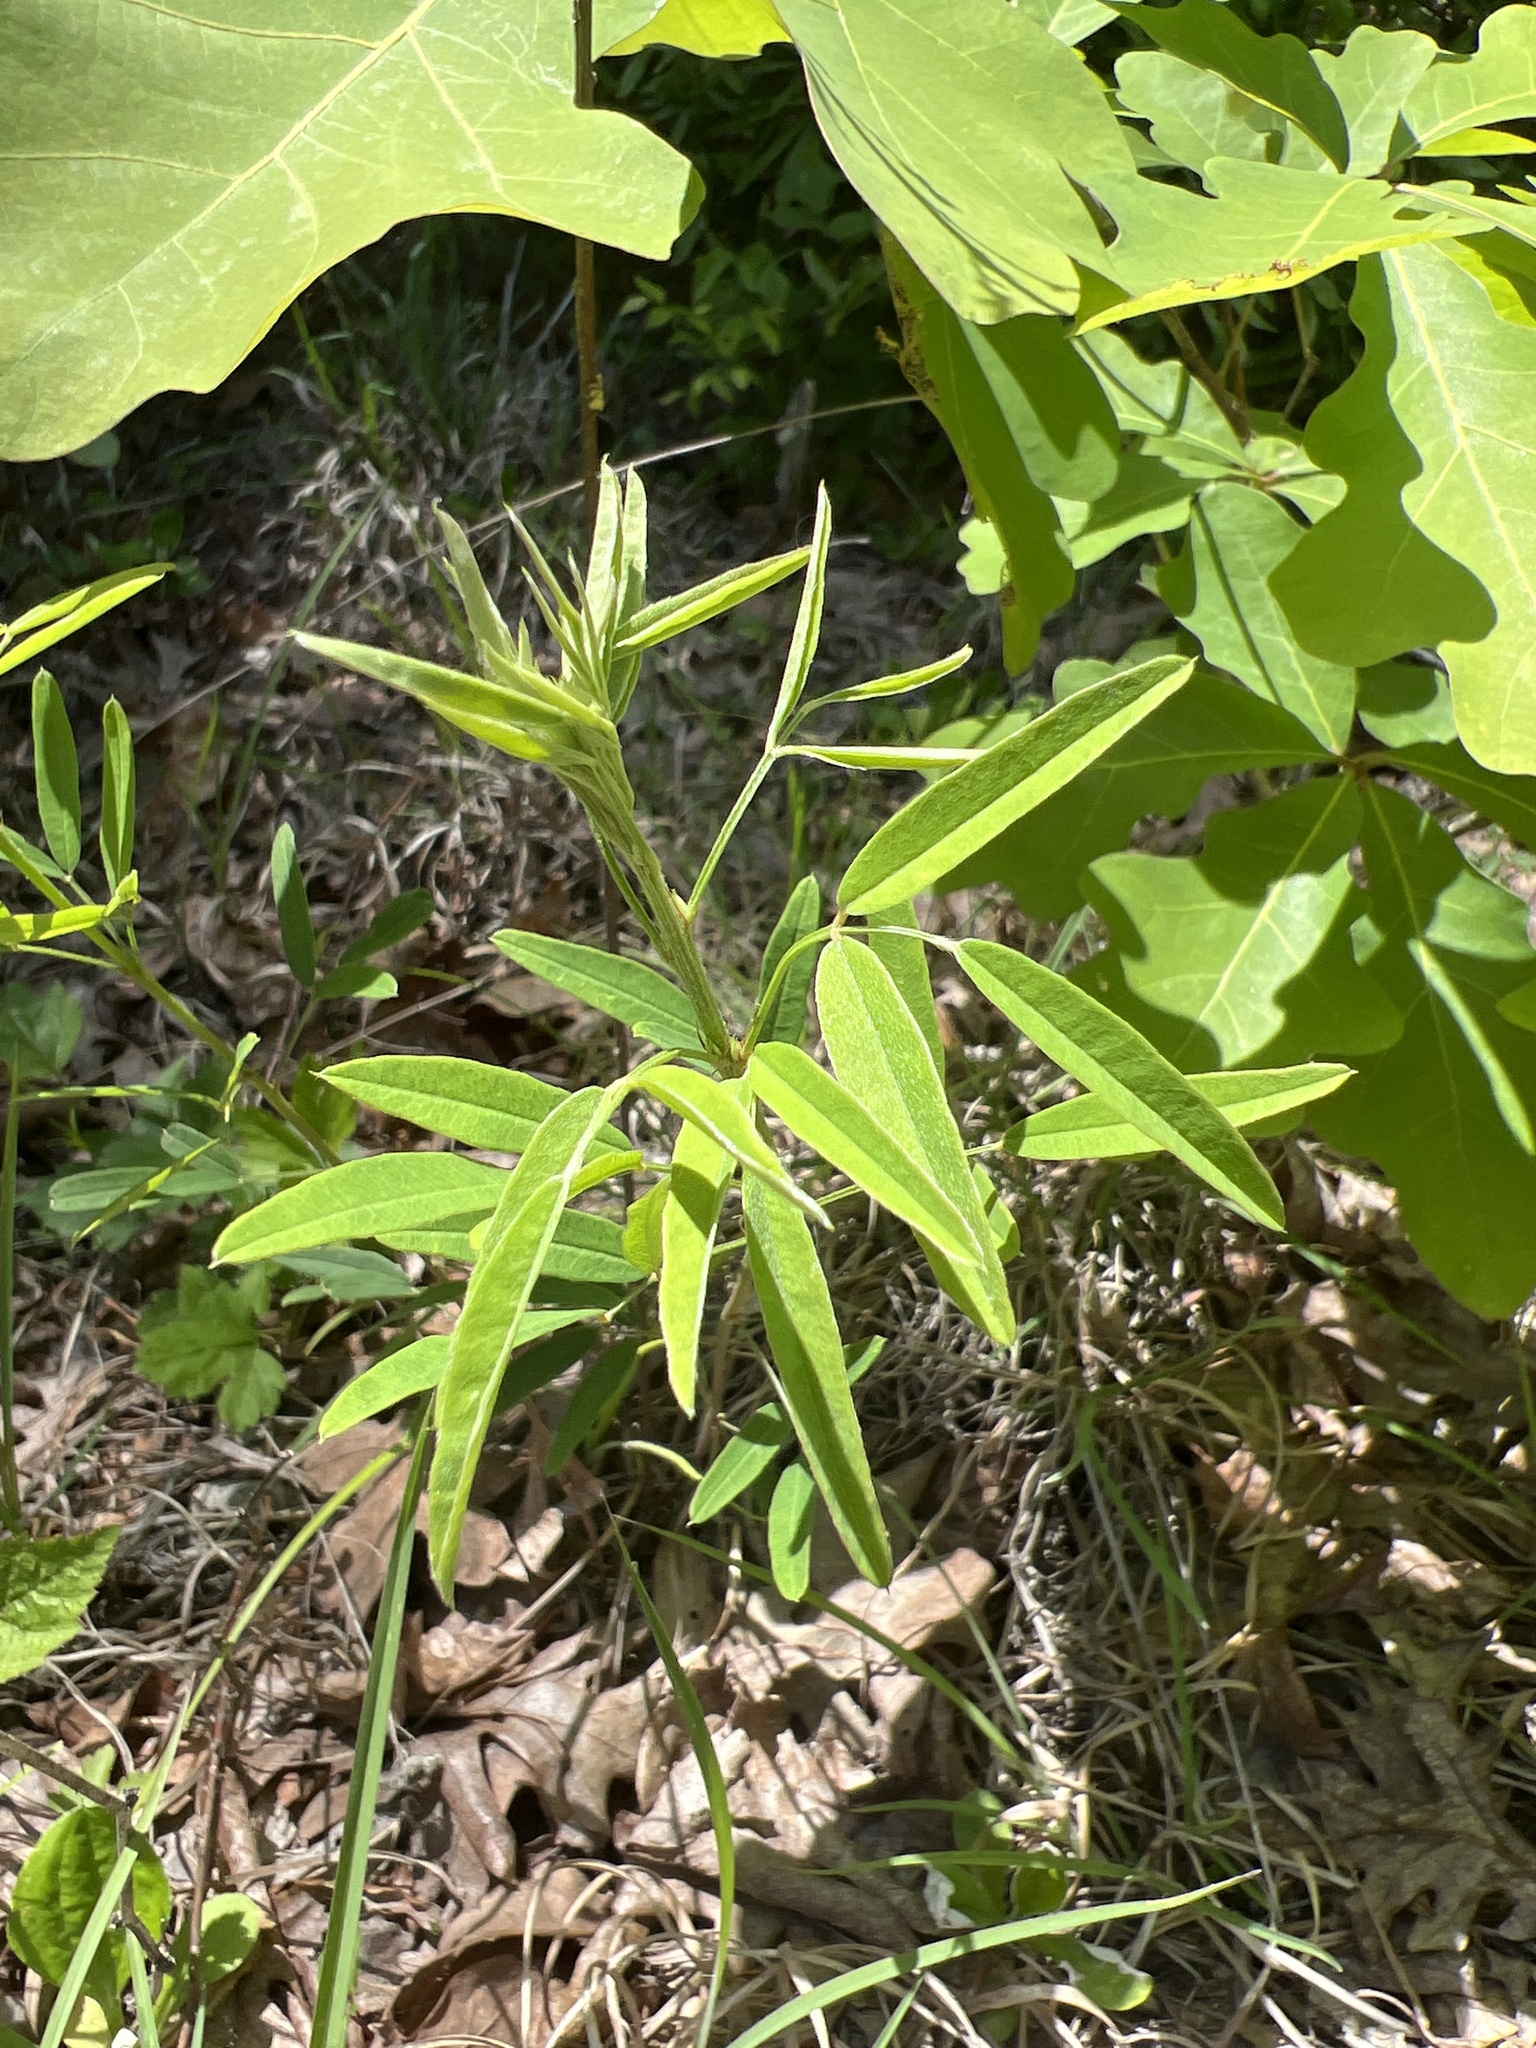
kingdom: Plantae
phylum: Tracheophyta
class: Magnoliopsida
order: Fabales
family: Fabaceae
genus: Lespedeza
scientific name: Lespedeza virginica
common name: Slender bush-clover
